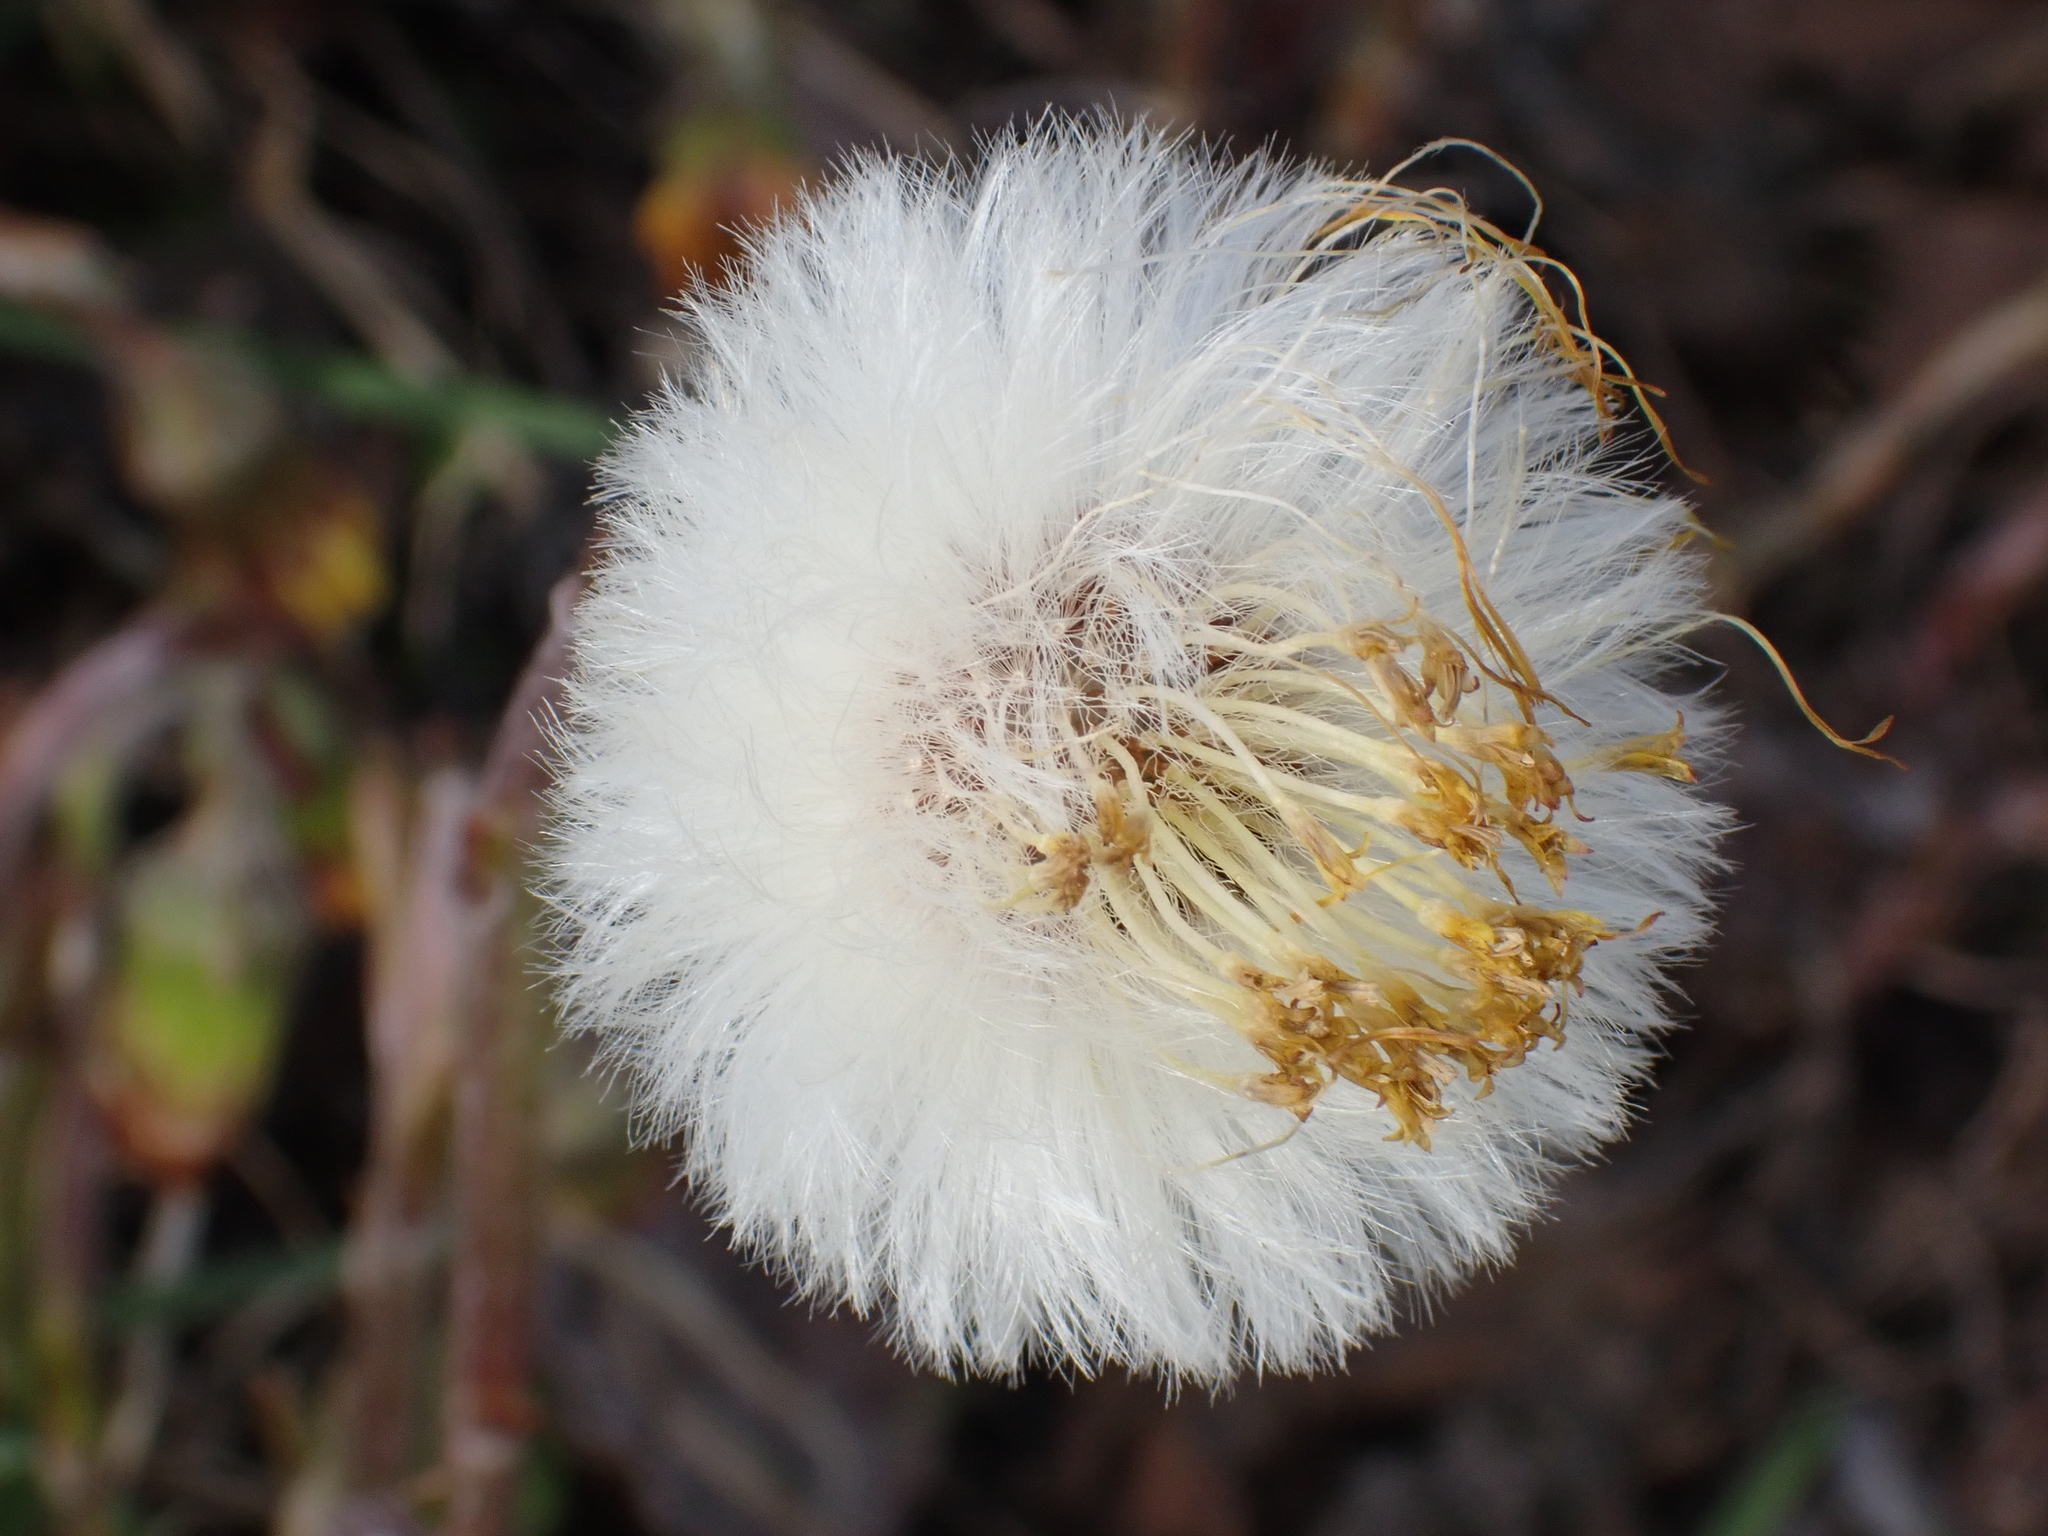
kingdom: Plantae
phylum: Tracheophyta
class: Magnoliopsida
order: Asterales
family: Asteraceae
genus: Tussilago
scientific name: Tussilago farfara
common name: Coltsfoot
